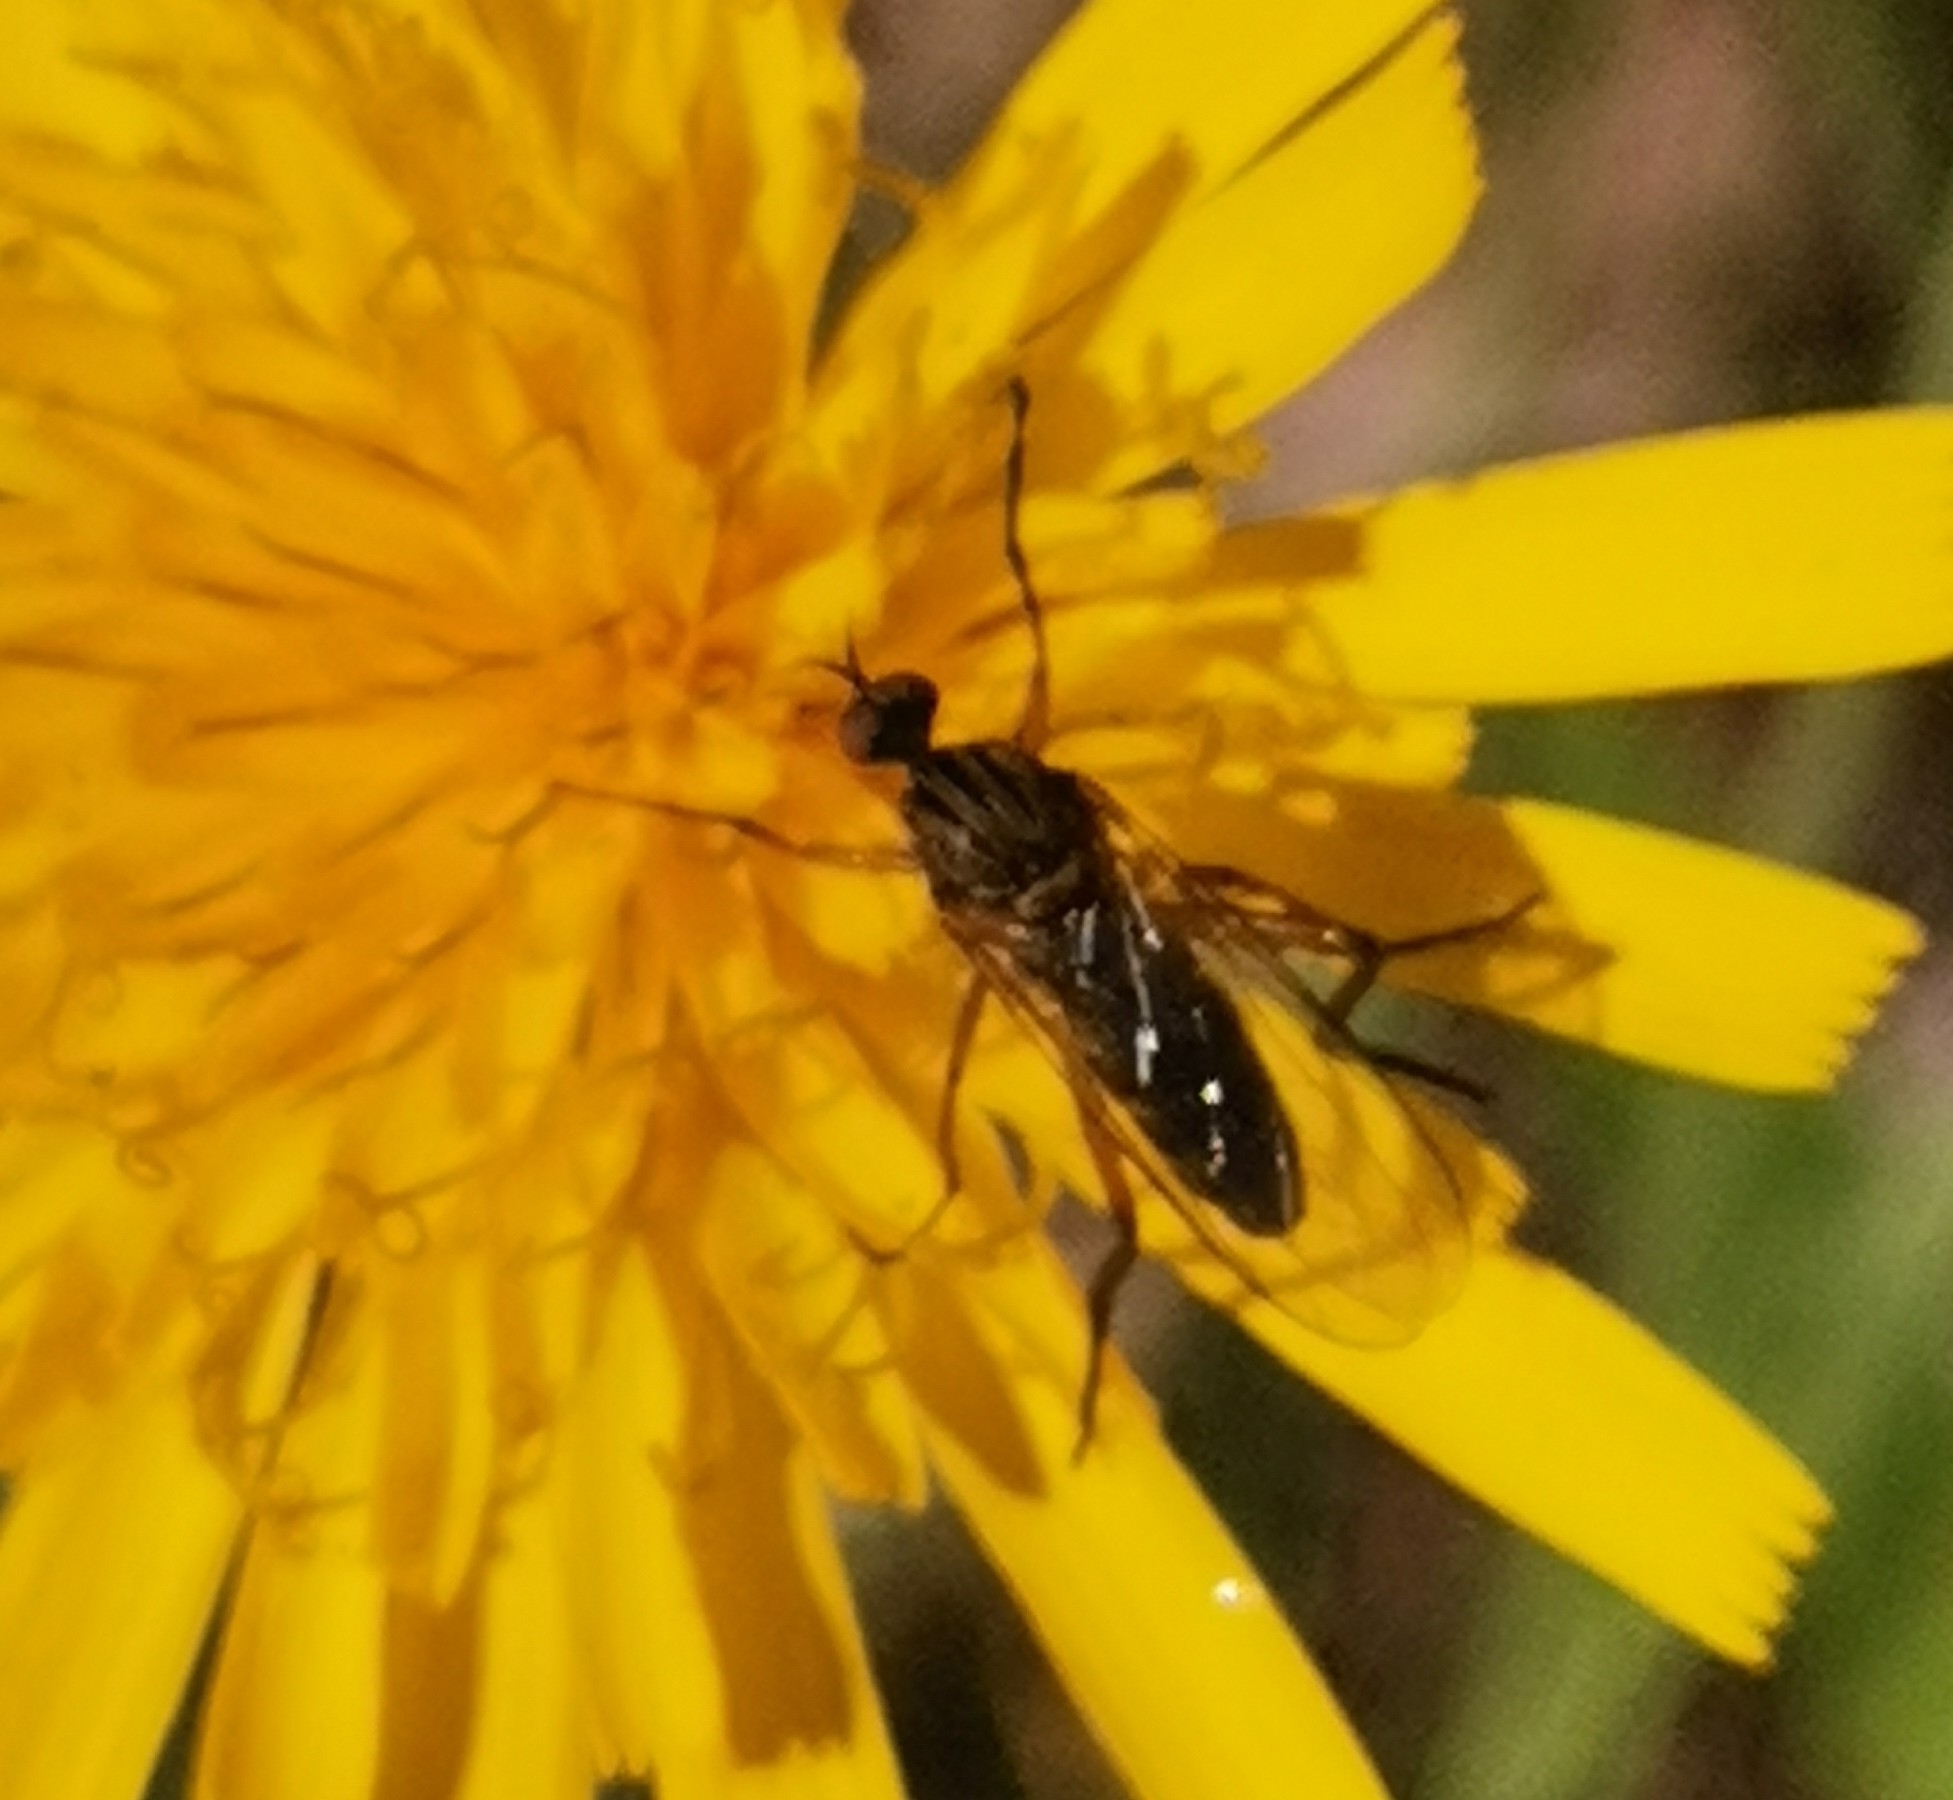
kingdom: Animalia
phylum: Arthropoda
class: Insecta
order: Diptera
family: Empididae
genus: Empis
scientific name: Empis livida
